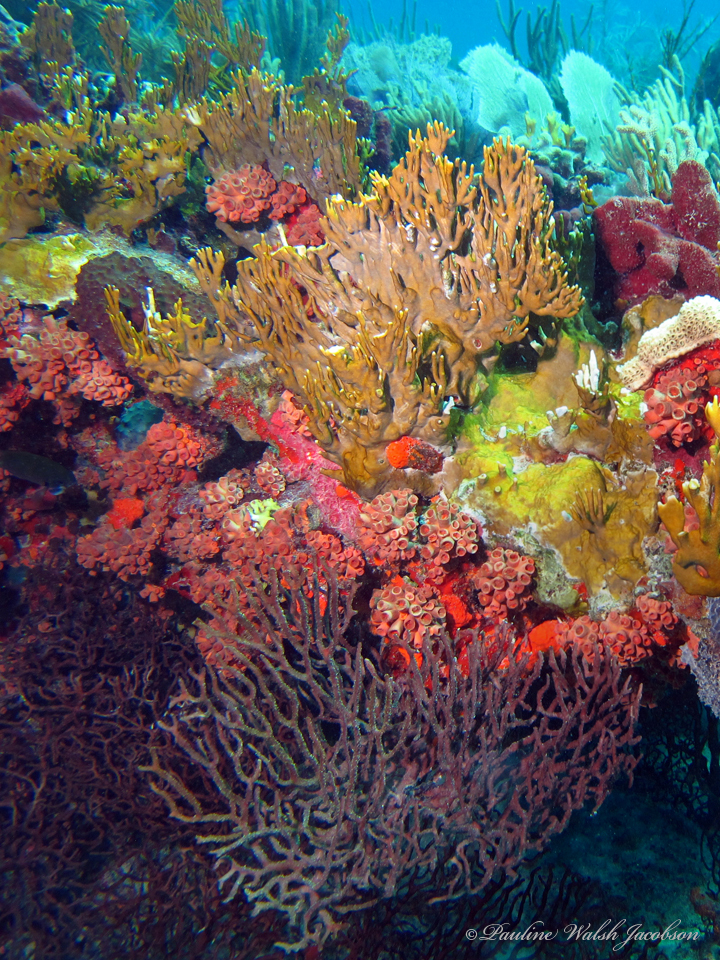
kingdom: Animalia
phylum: Cnidaria
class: Hydrozoa
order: Anthoathecata
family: Milleporidae
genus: Millepora
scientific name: Millepora alcicornis
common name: Branching fire coral
